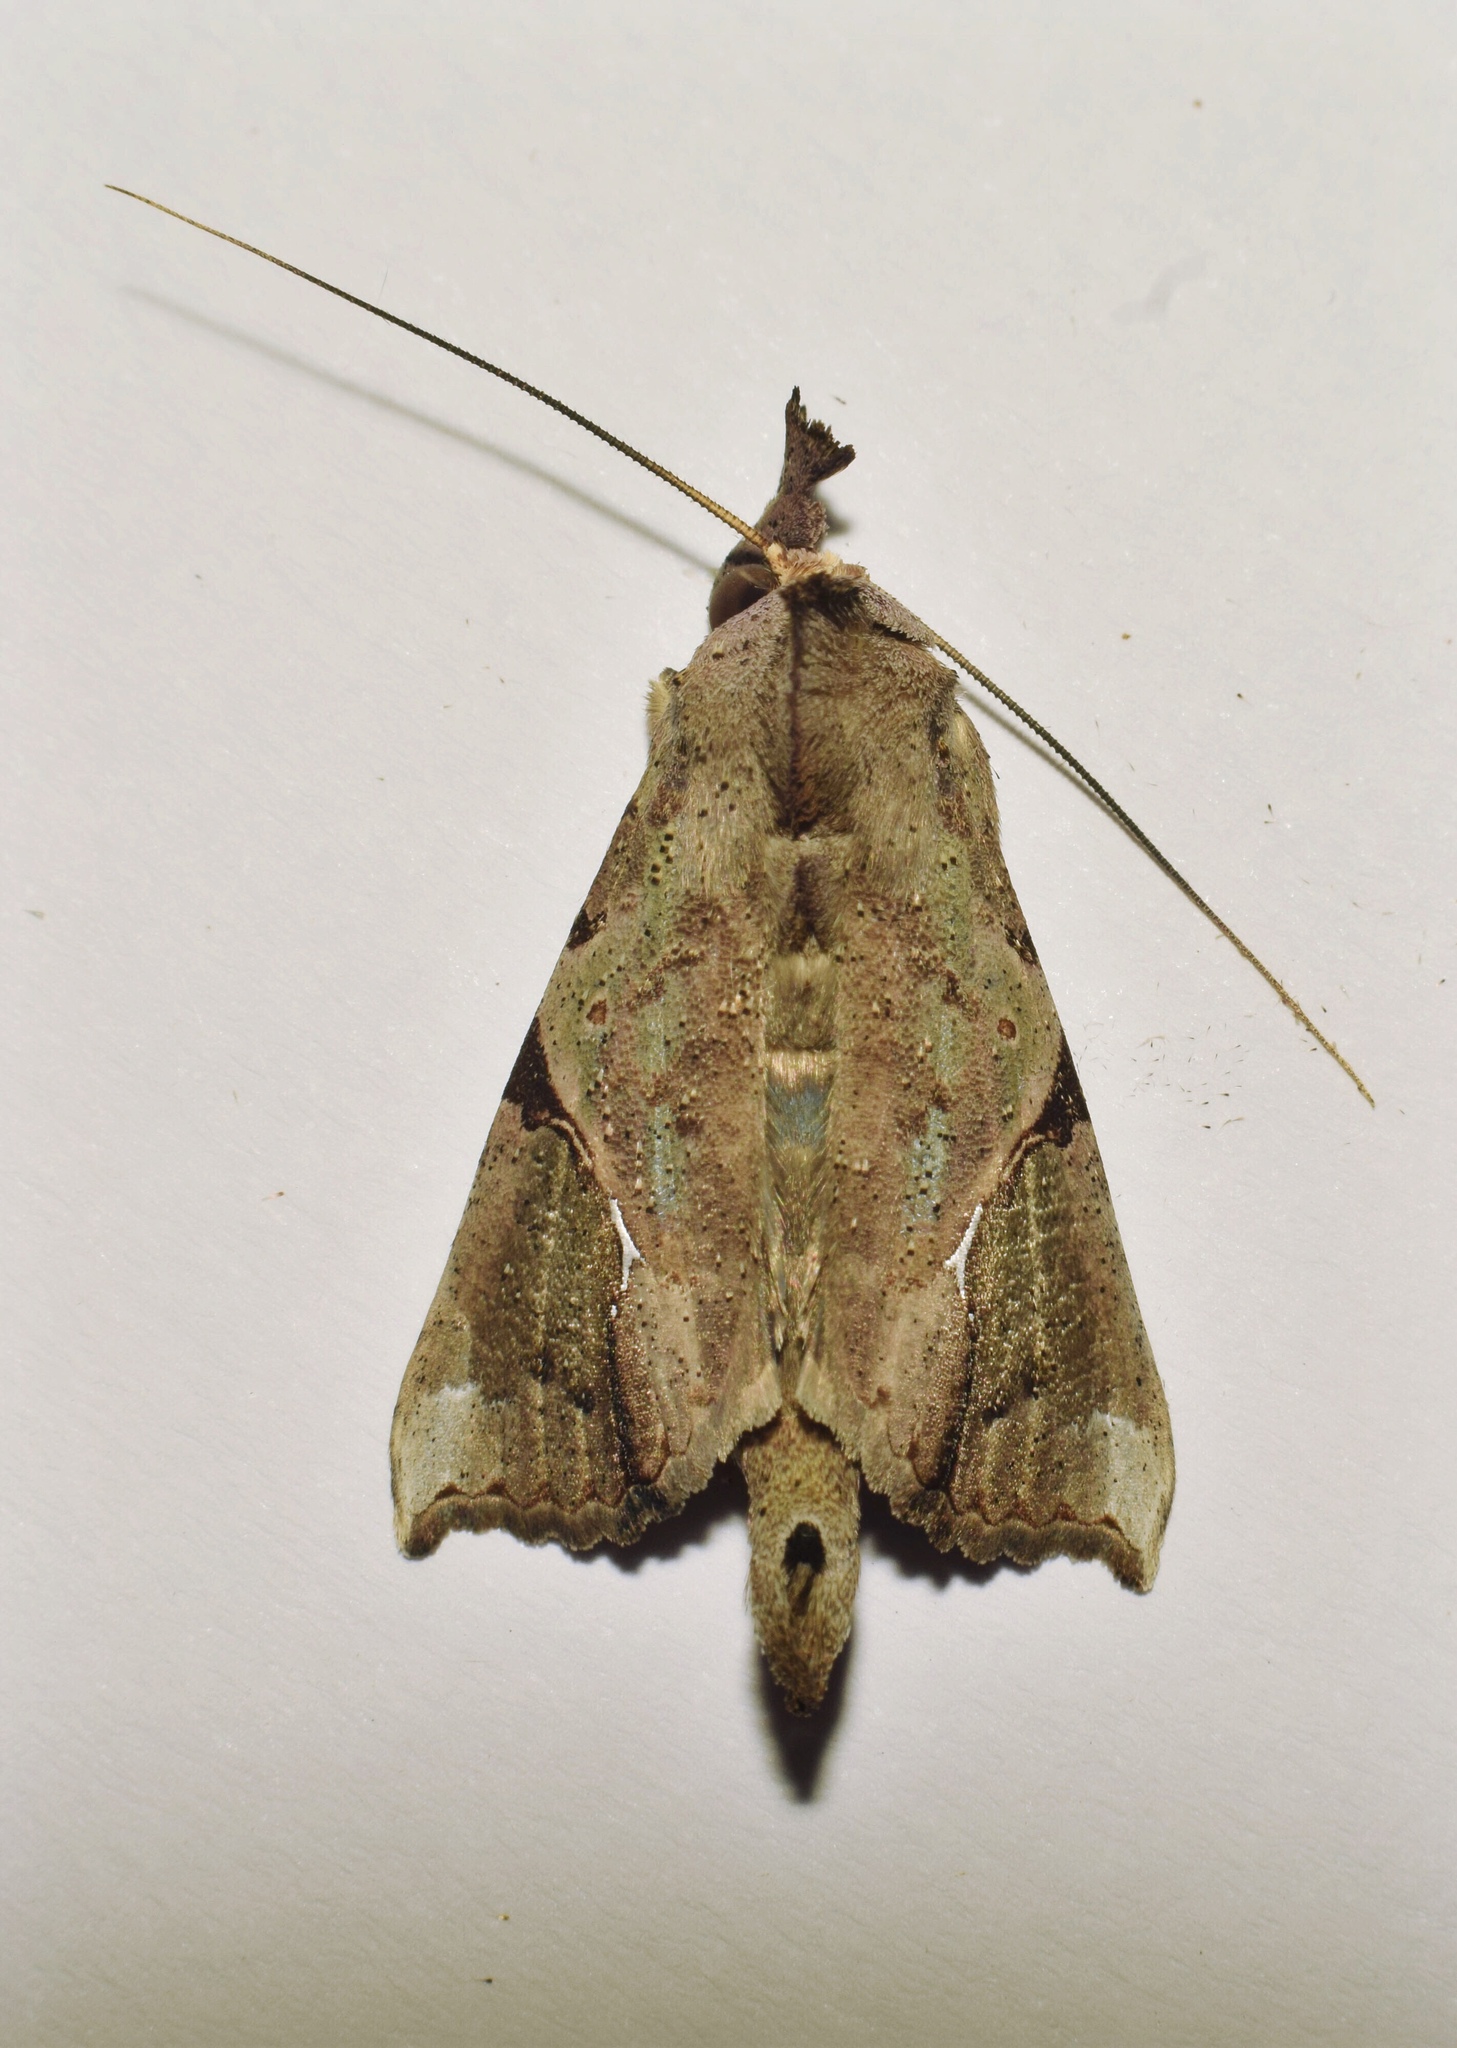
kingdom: Animalia
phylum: Arthropoda
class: Insecta
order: Lepidoptera
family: Erebidae
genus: Meliaba
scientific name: Meliaba pelopsalis
